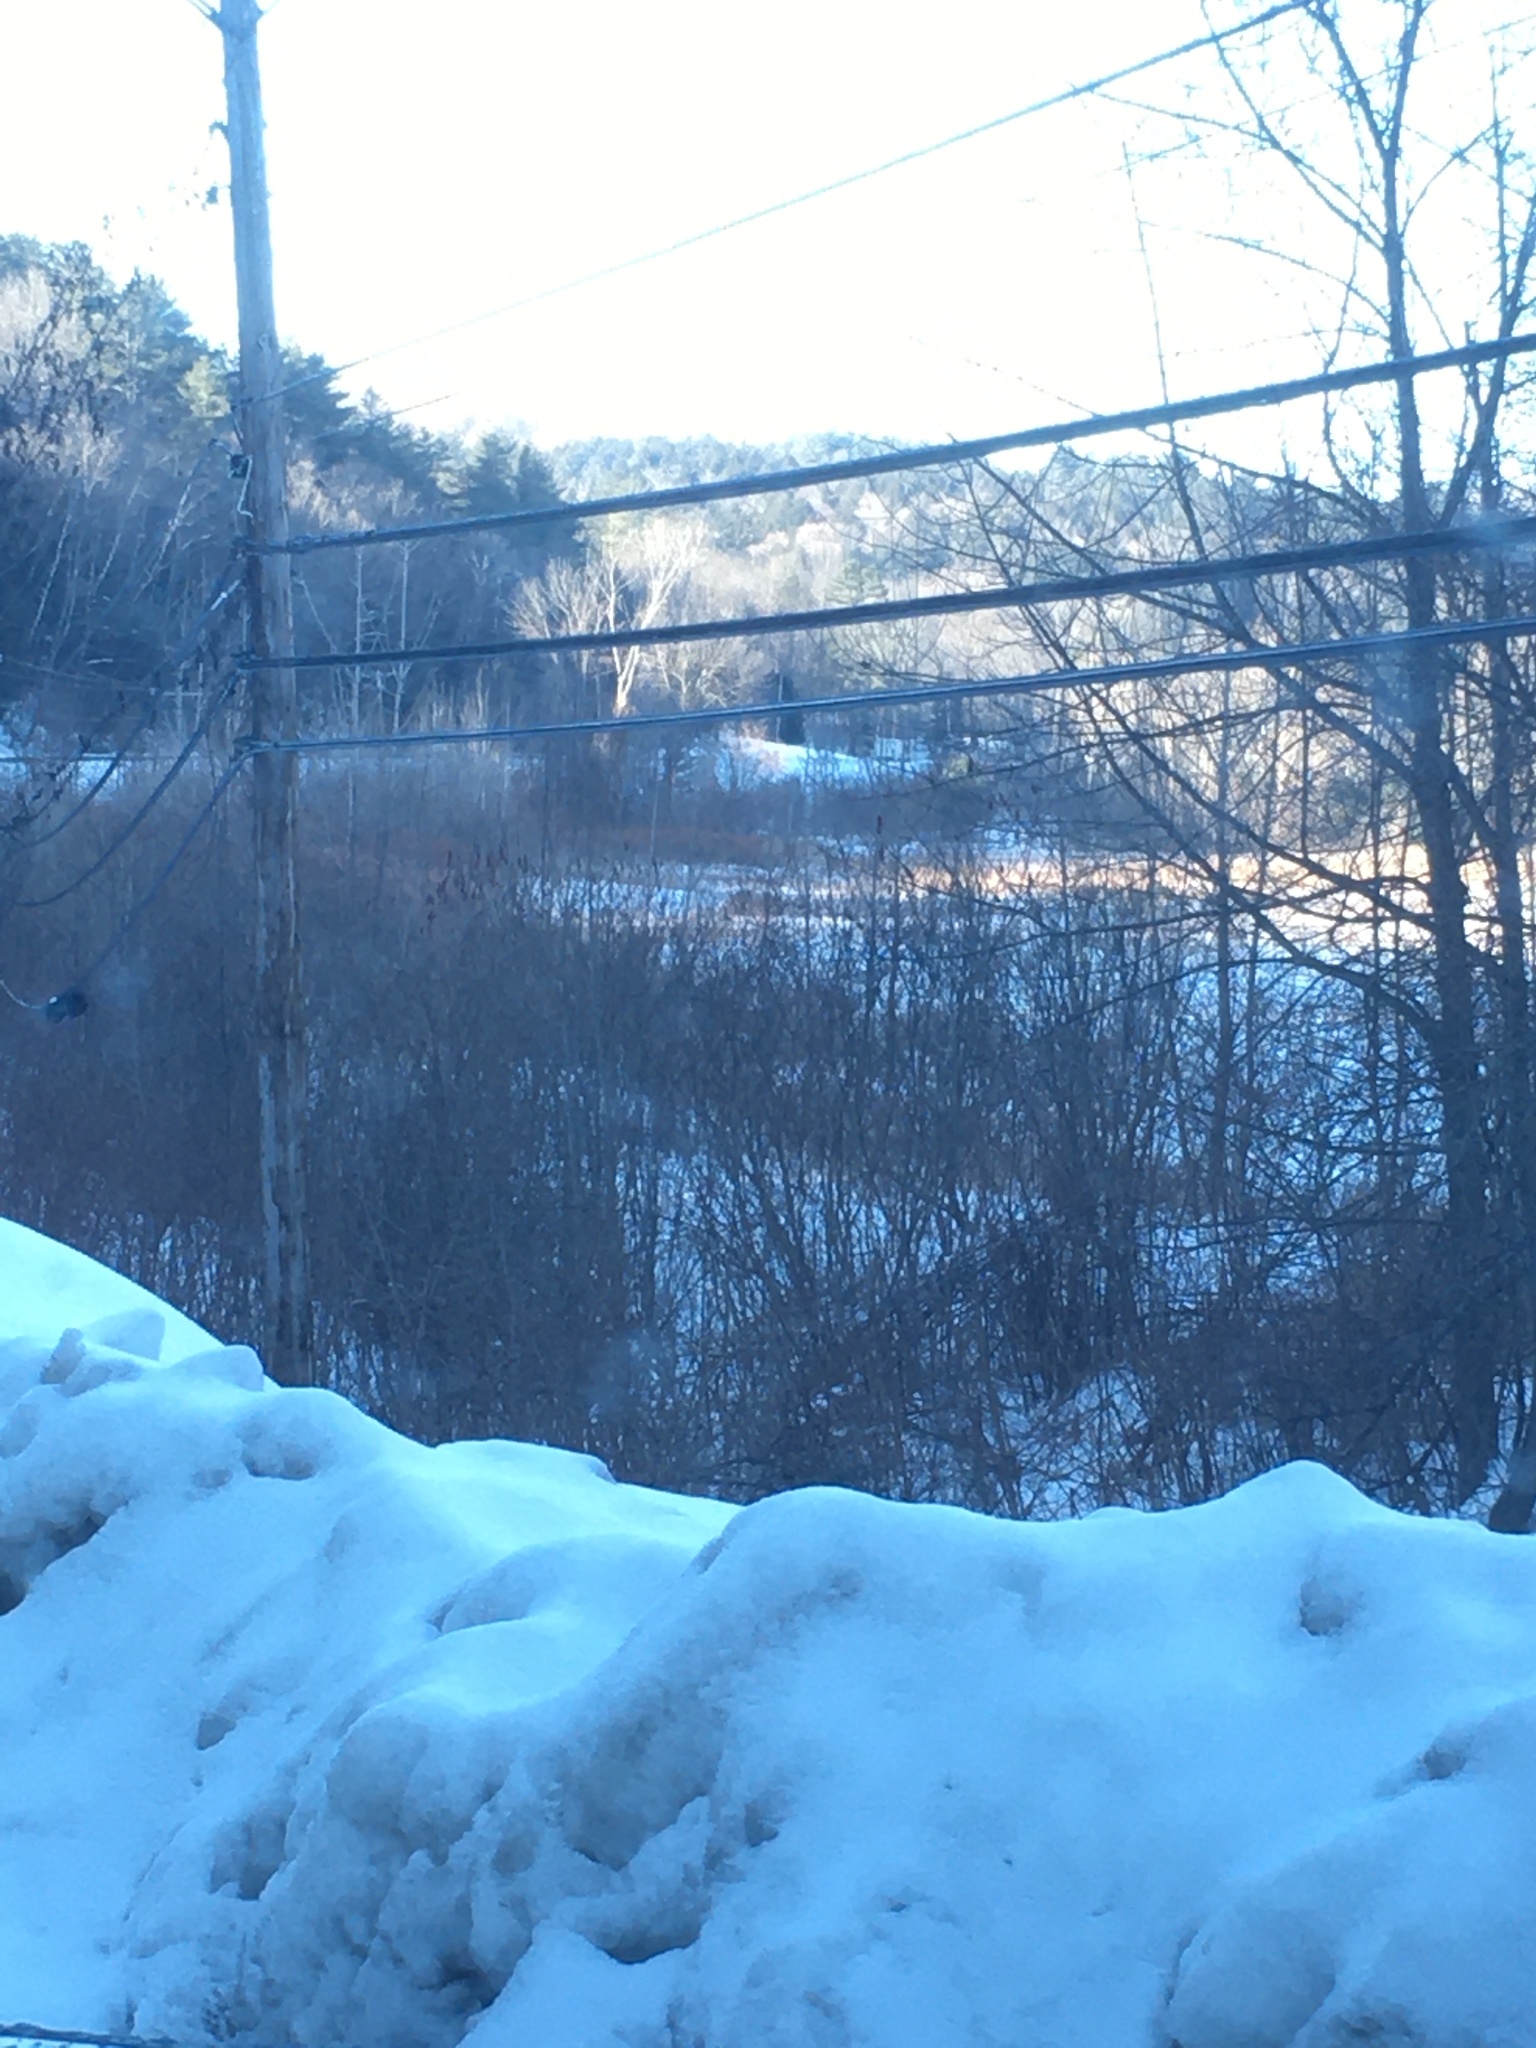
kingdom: Plantae
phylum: Tracheophyta
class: Magnoliopsida
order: Sapindales
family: Anacardiaceae
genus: Rhus
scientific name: Rhus typhina
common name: Staghorn sumac
